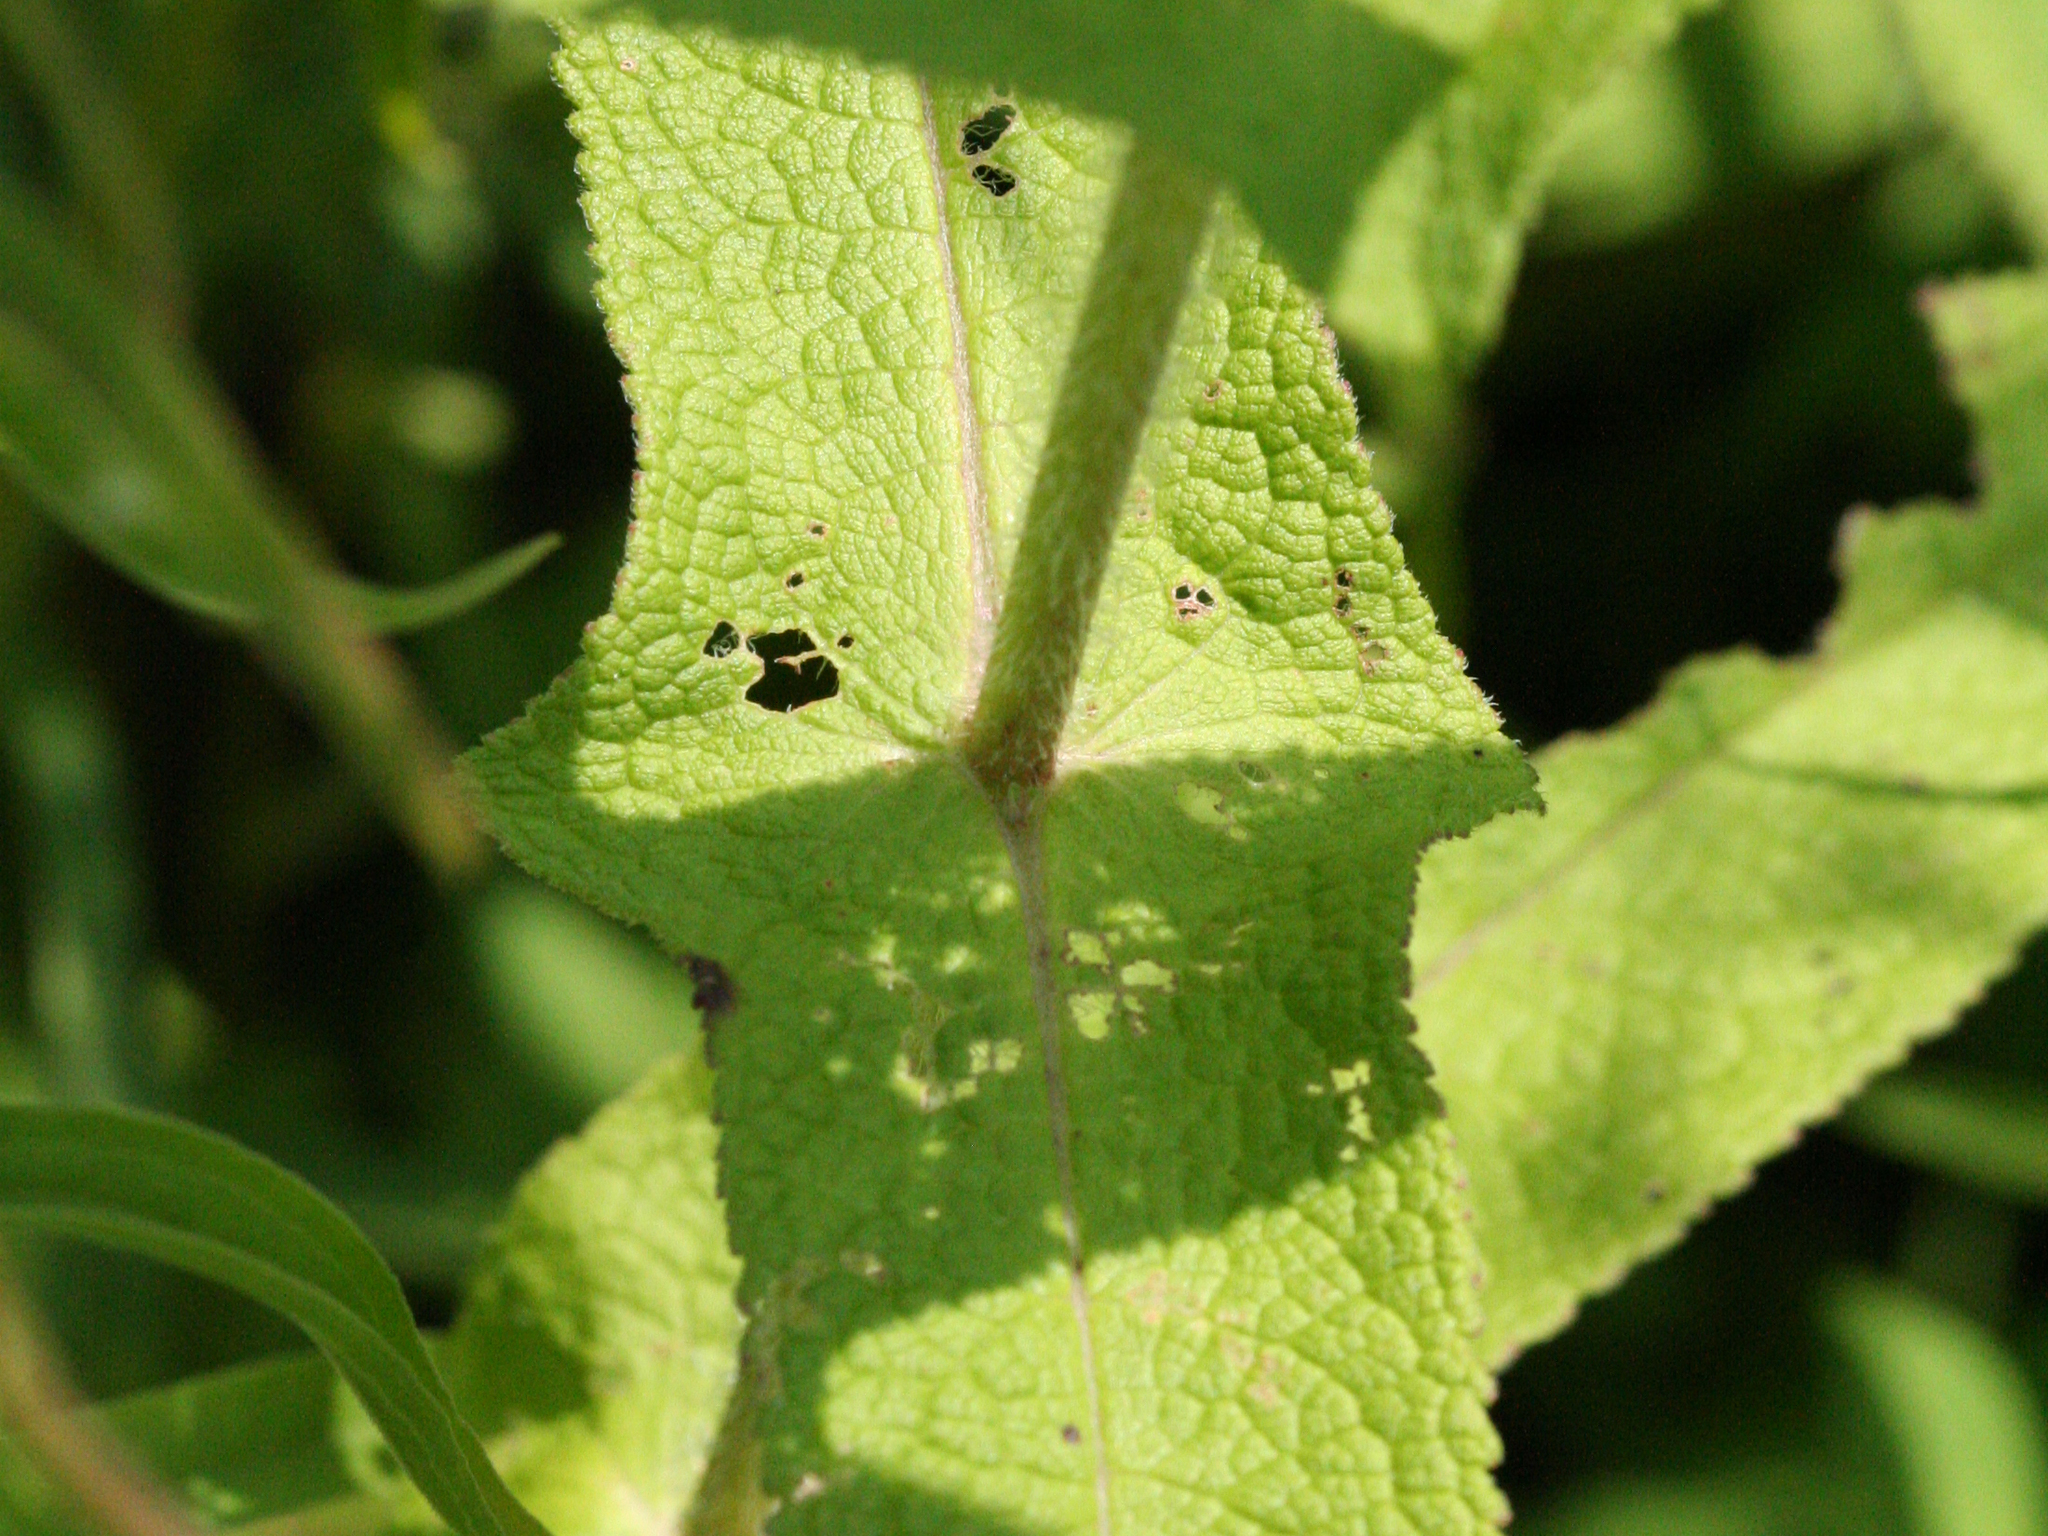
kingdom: Plantae
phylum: Tracheophyta
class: Magnoliopsida
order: Asterales
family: Asteraceae
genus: Eupatorium
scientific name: Eupatorium perfoliatum
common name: Boneset
